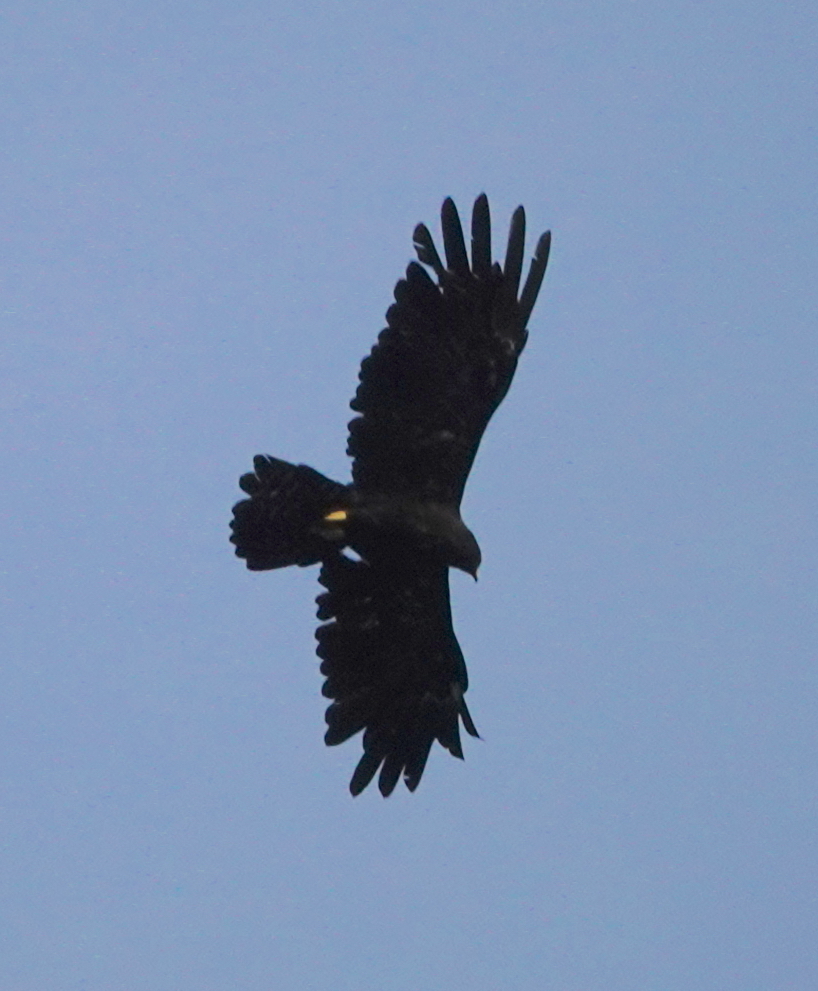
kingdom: Animalia
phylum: Chordata
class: Aves
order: Accipitriformes
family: Accipitridae
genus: Ictinaetus
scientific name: Ictinaetus malayensis
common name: Black eagle
